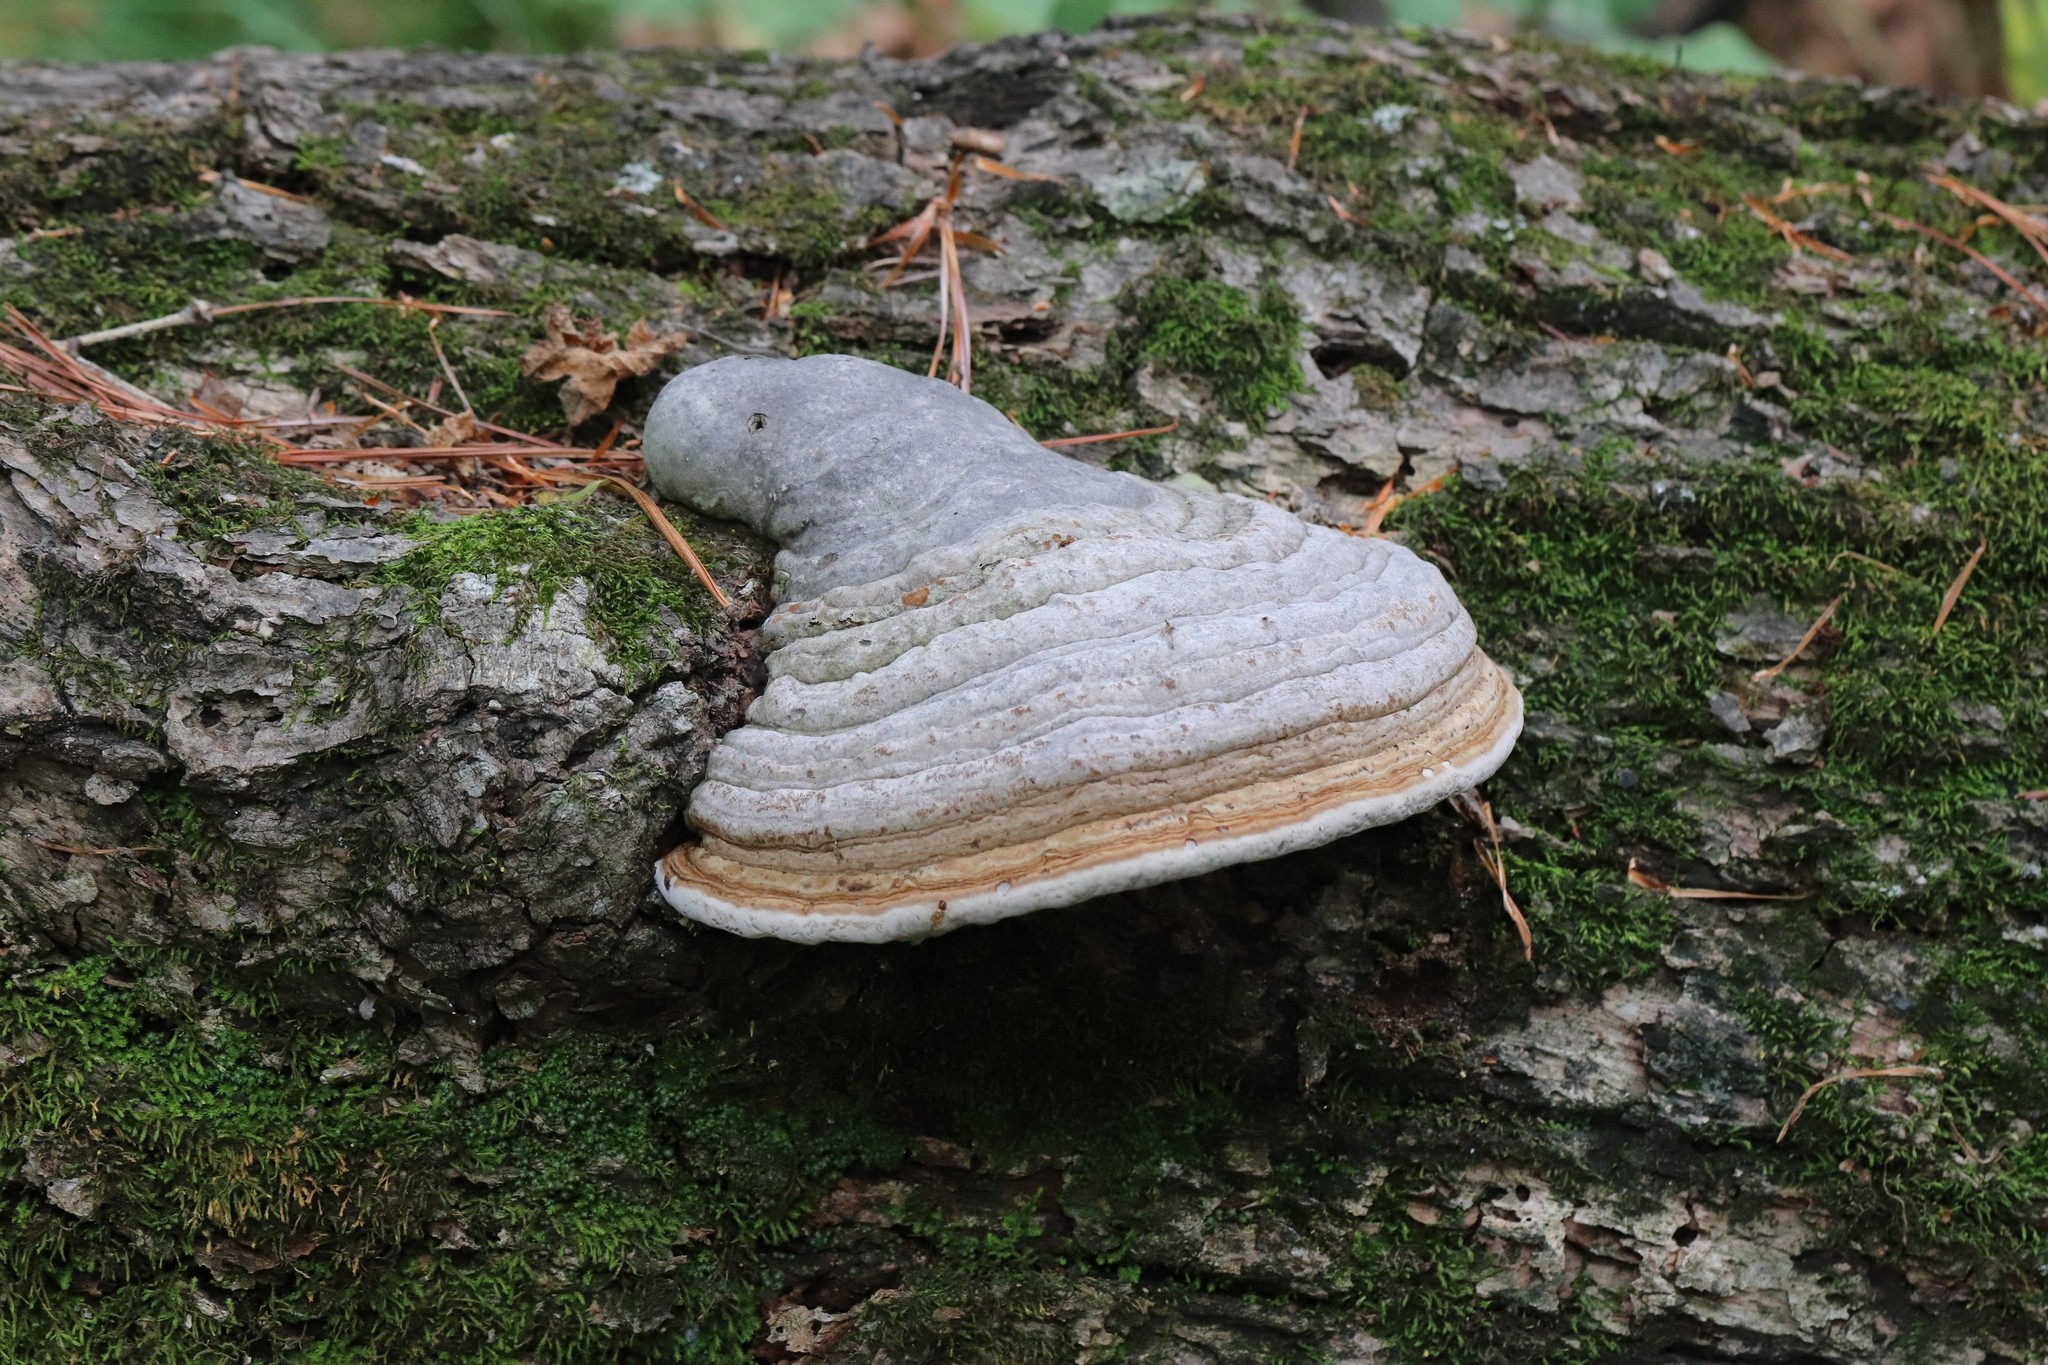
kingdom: Fungi
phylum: Basidiomycota
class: Agaricomycetes
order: Polyporales
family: Polyporaceae
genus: Fomes
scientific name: Fomes fomentarius
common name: Hoof fungus
